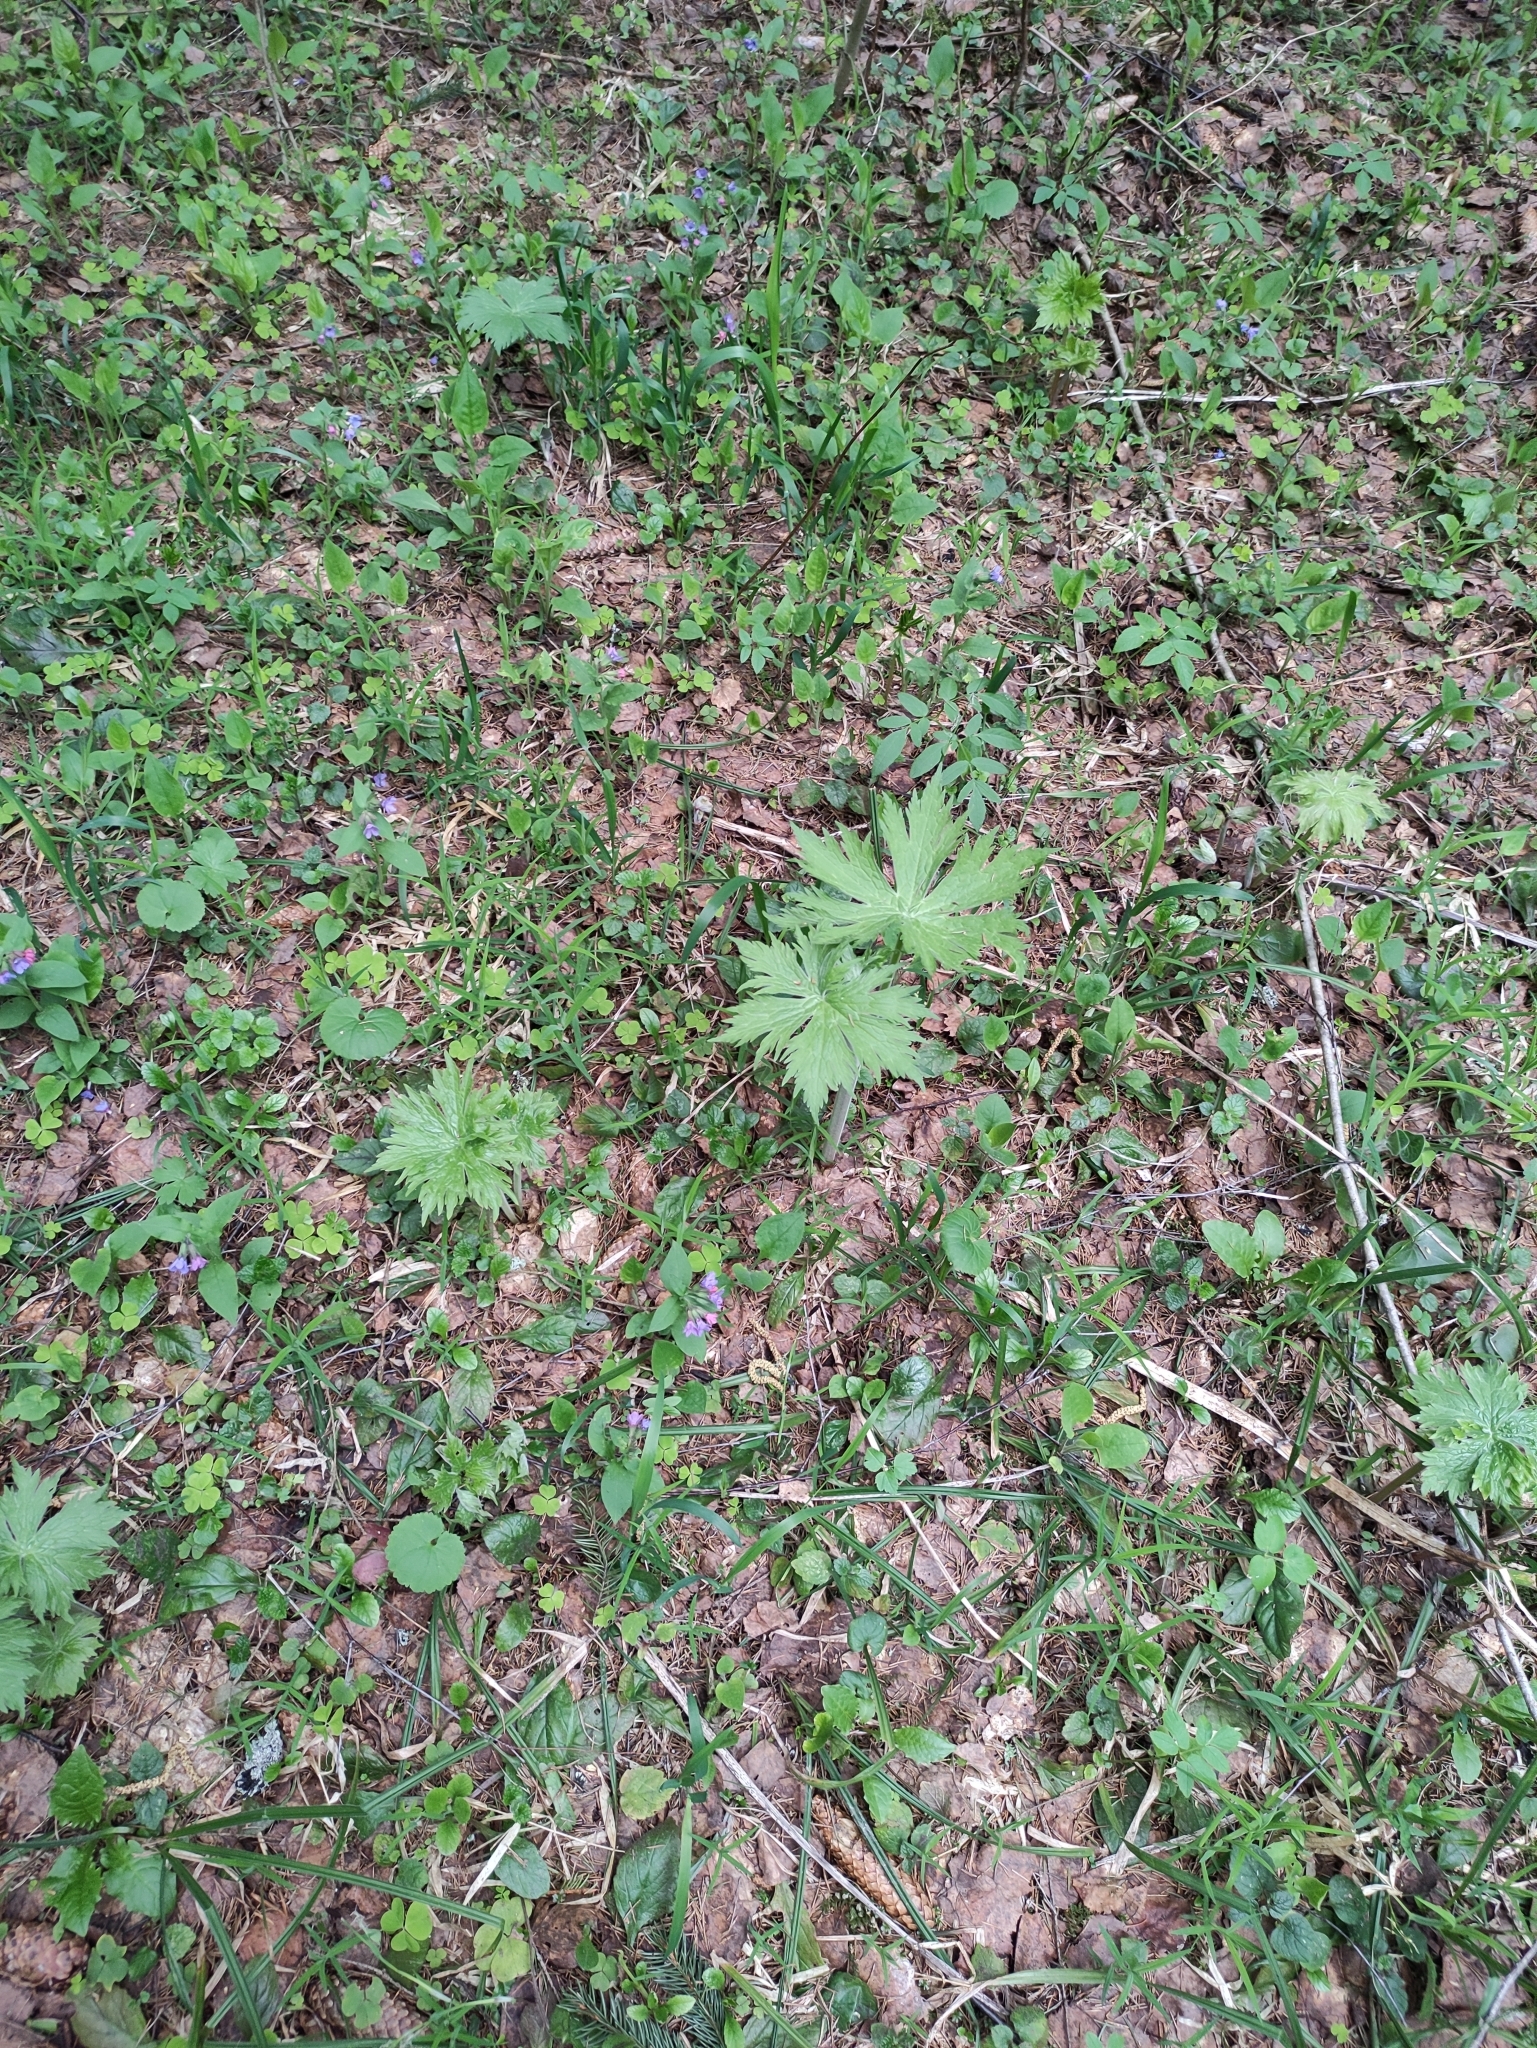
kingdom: Plantae
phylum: Tracheophyta
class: Magnoliopsida
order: Ranunculales
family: Ranunculaceae
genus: Aconitum
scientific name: Aconitum septentrionale
